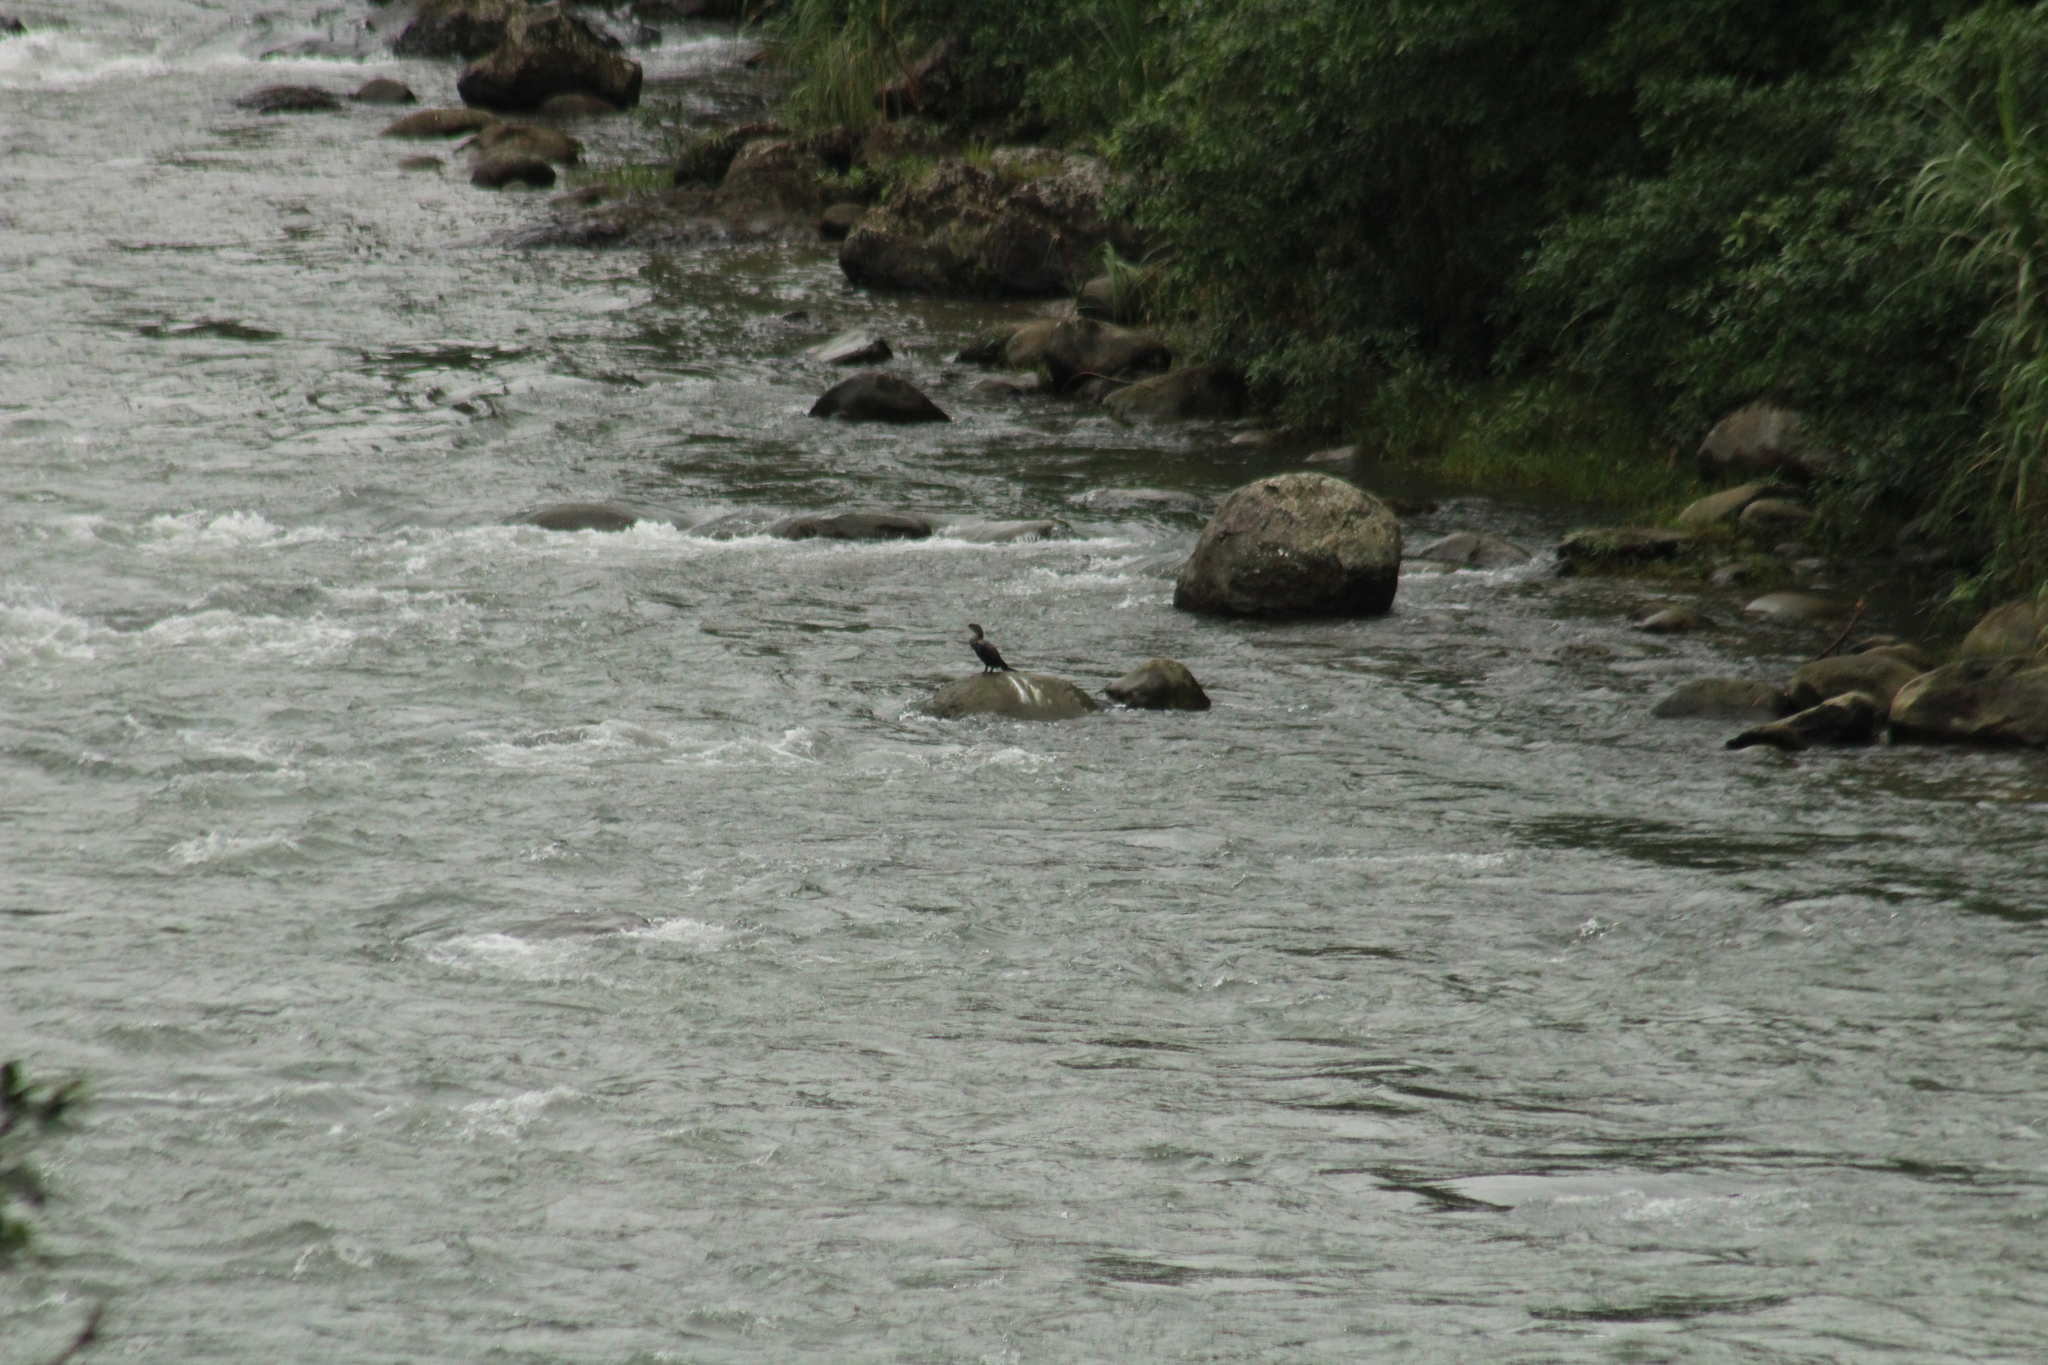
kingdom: Animalia
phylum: Chordata
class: Aves
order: Suliformes
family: Phalacrocoracidae
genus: Phalacrocorax
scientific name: Phalacrocorax brasilianus
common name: Neotropic cormorant
